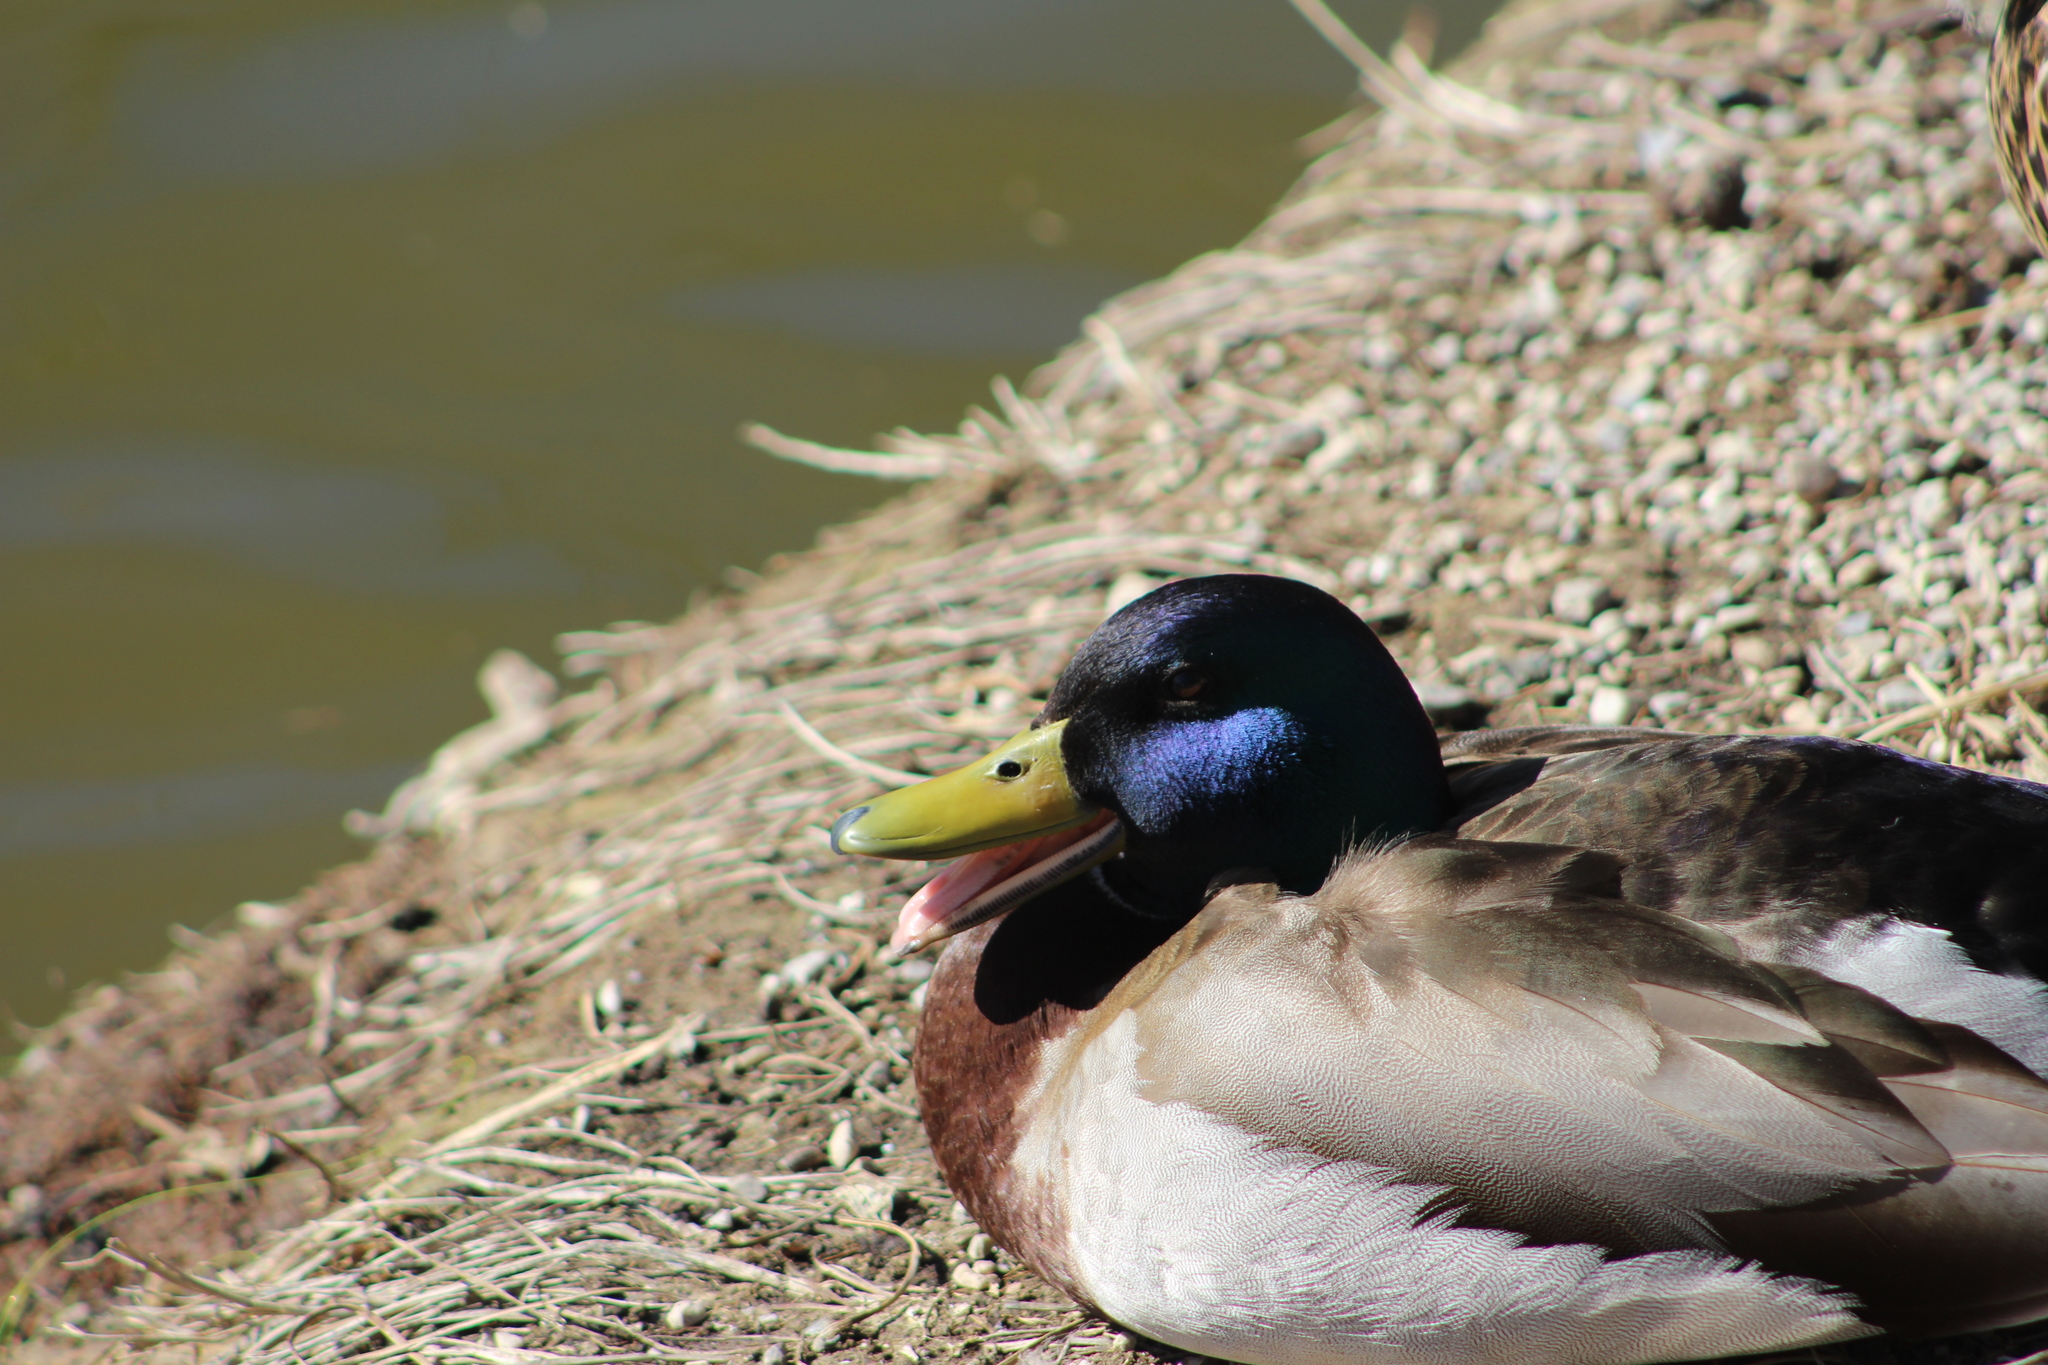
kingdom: Animalia
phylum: Chordata
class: Aves
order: Anseriformes
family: Anatidae
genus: Anas
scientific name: Anas platyrhynchos
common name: Mallard
